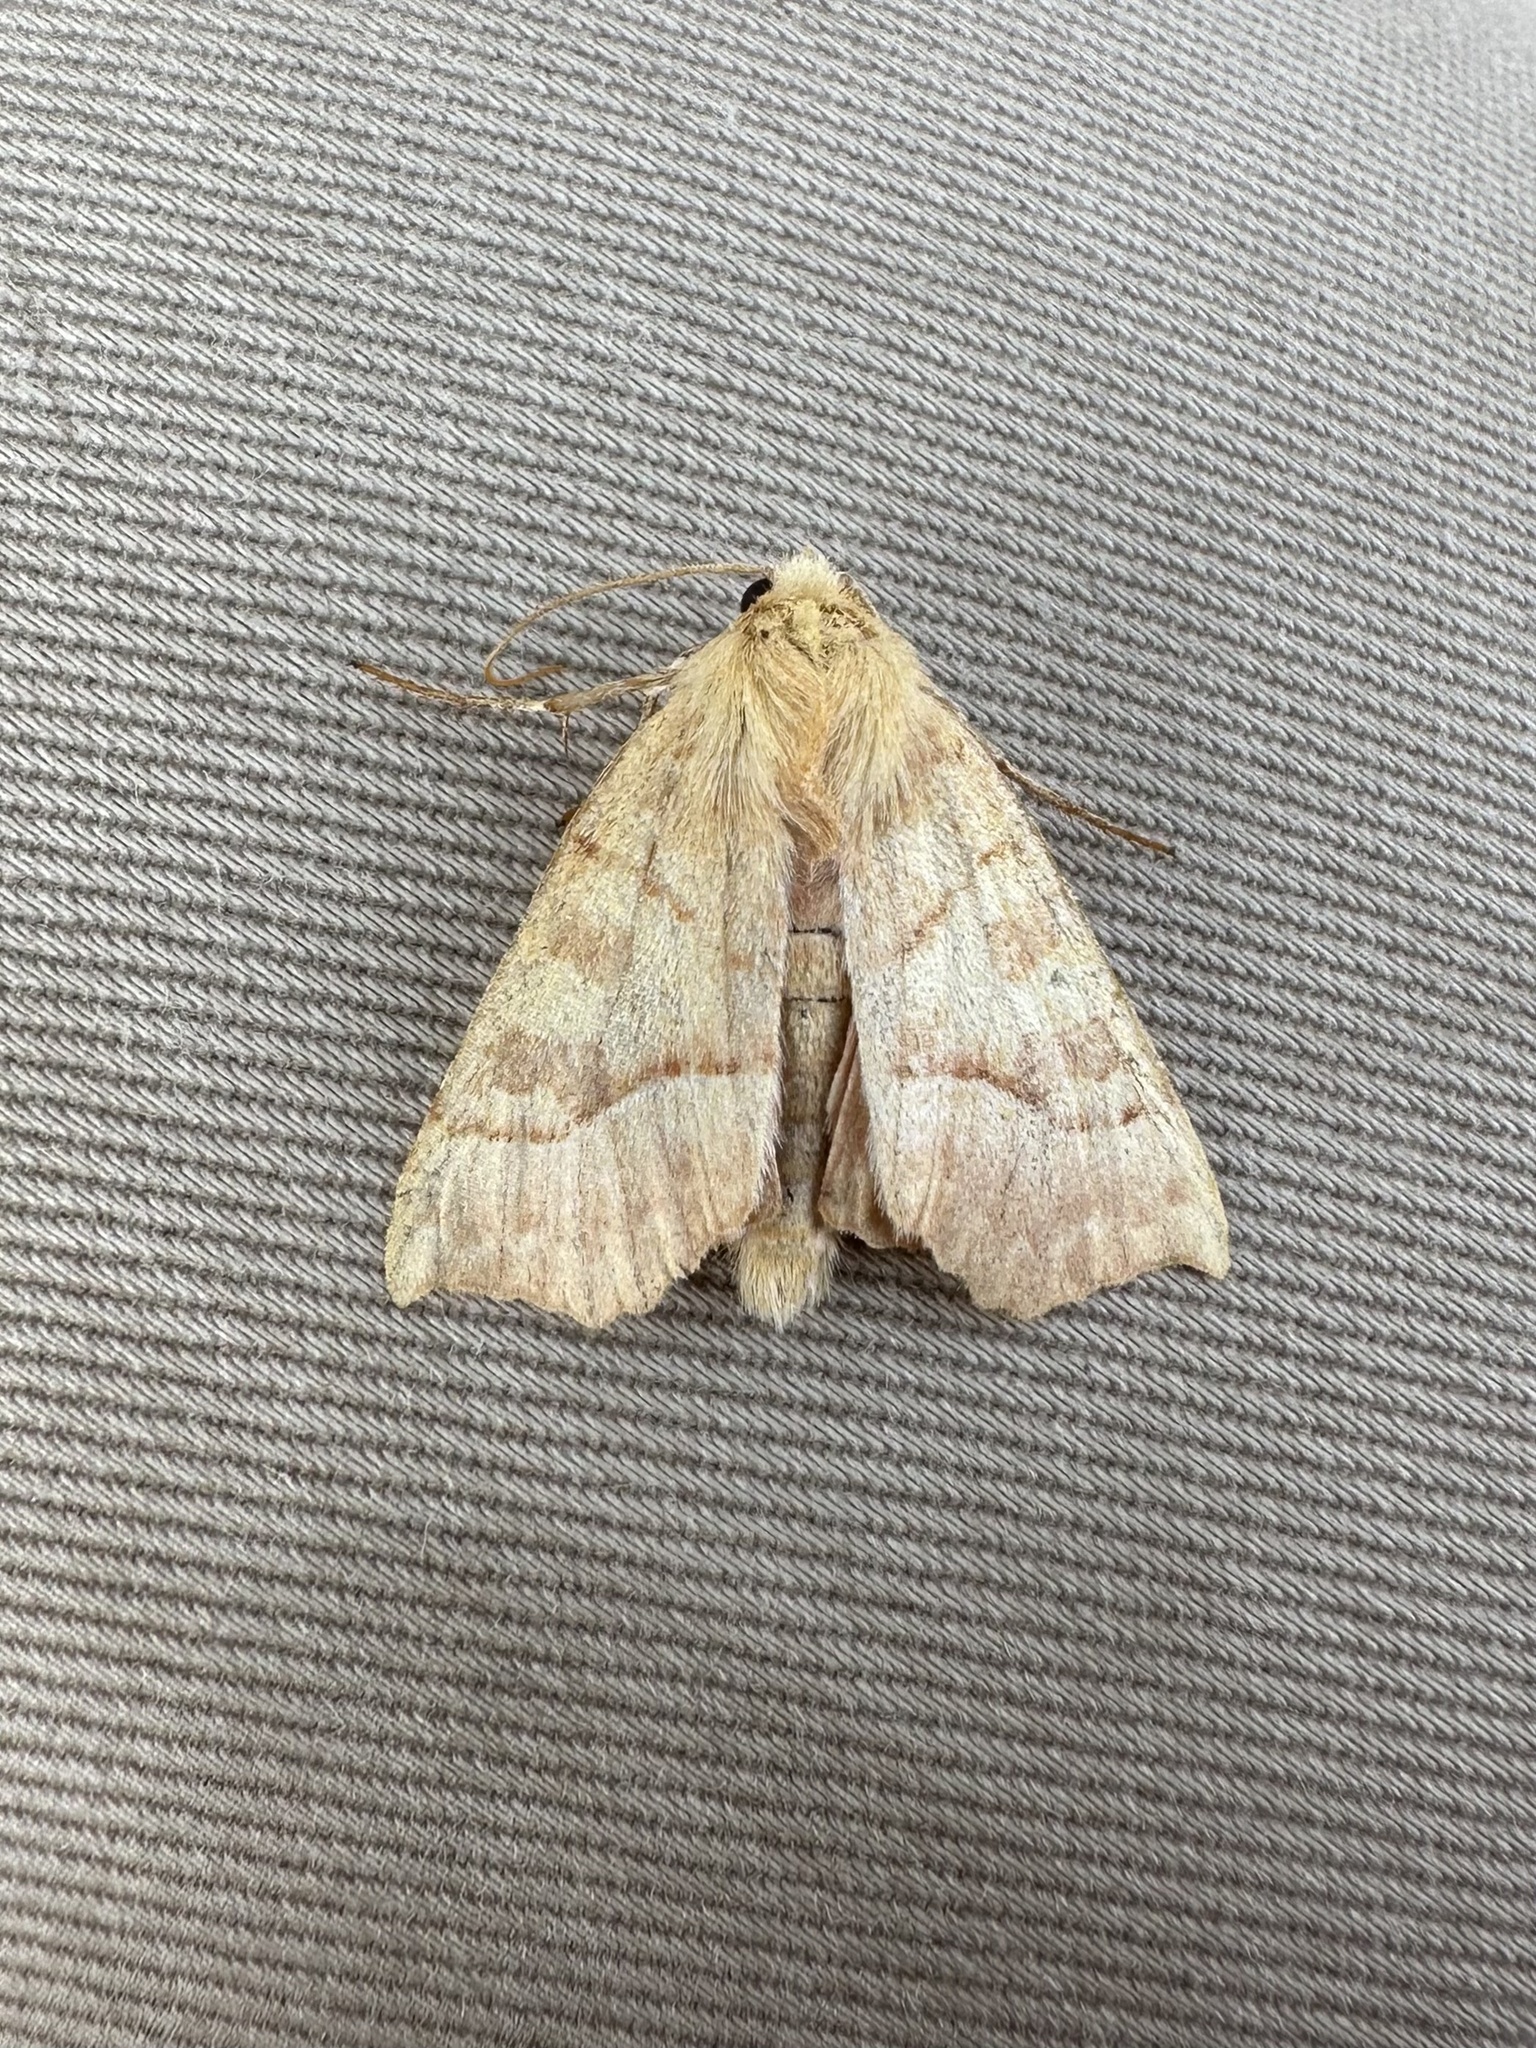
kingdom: Animalia
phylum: Arthropoda
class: Insecta
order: Lepidoptera
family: Noctuidae
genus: Eucirroedia
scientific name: Eucirroedia pampina
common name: Scalloped sallow
